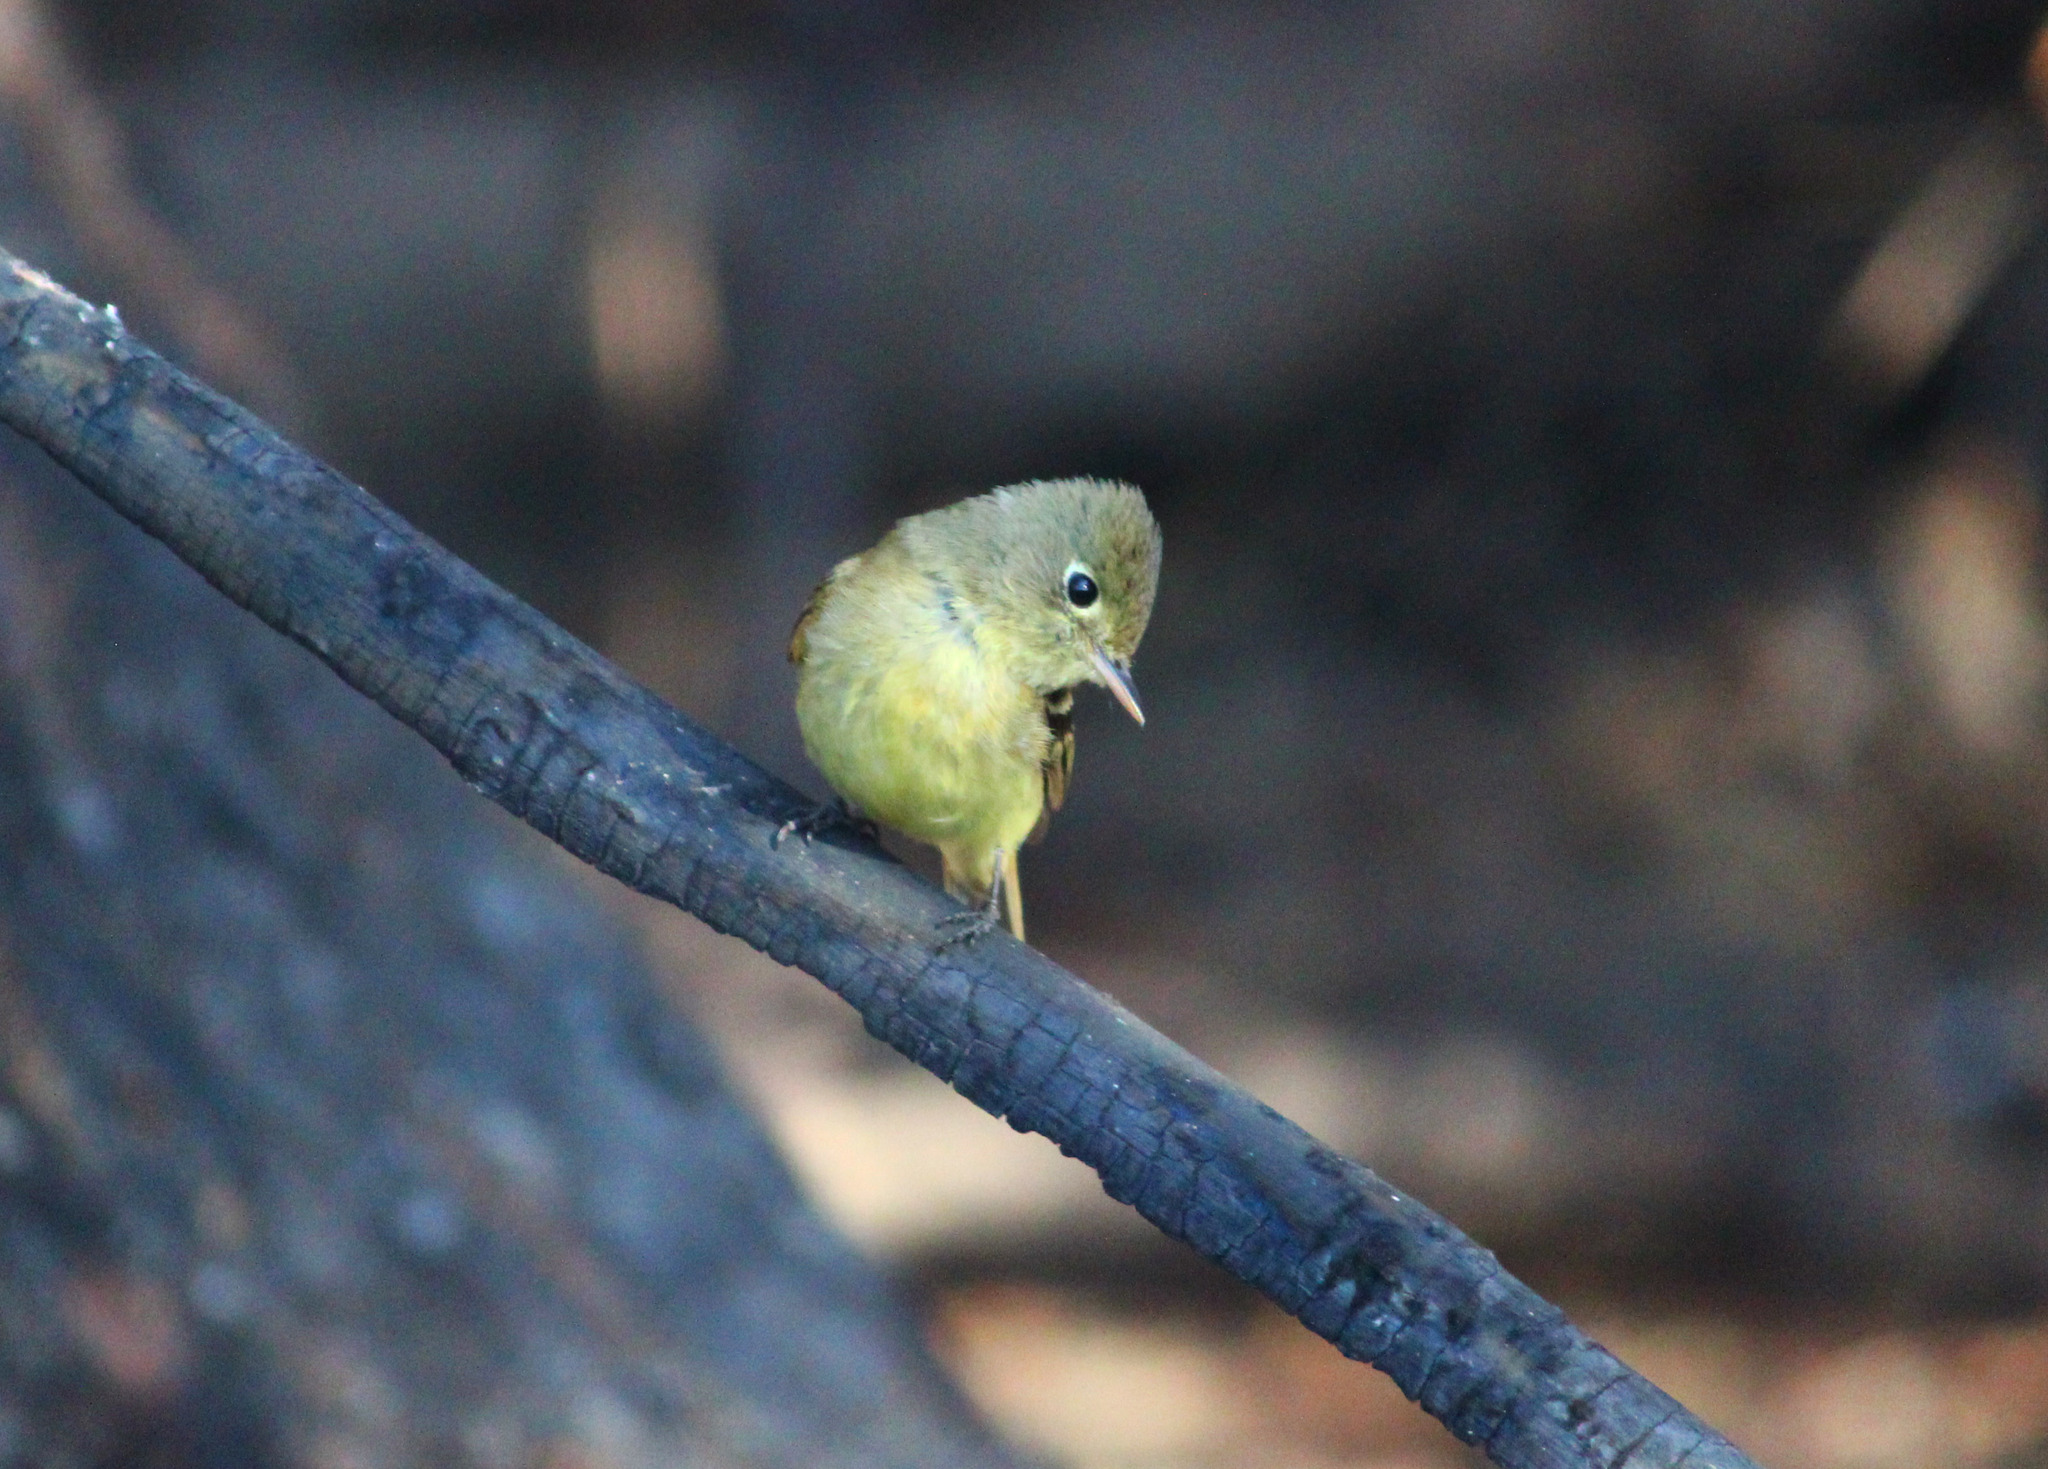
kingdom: Animalia
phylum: Chordata
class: Aves
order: Passeriformes
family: Tyrannidae
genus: Empidonax
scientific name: Empidonax difficilis
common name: Pacific-slope flycatcher
